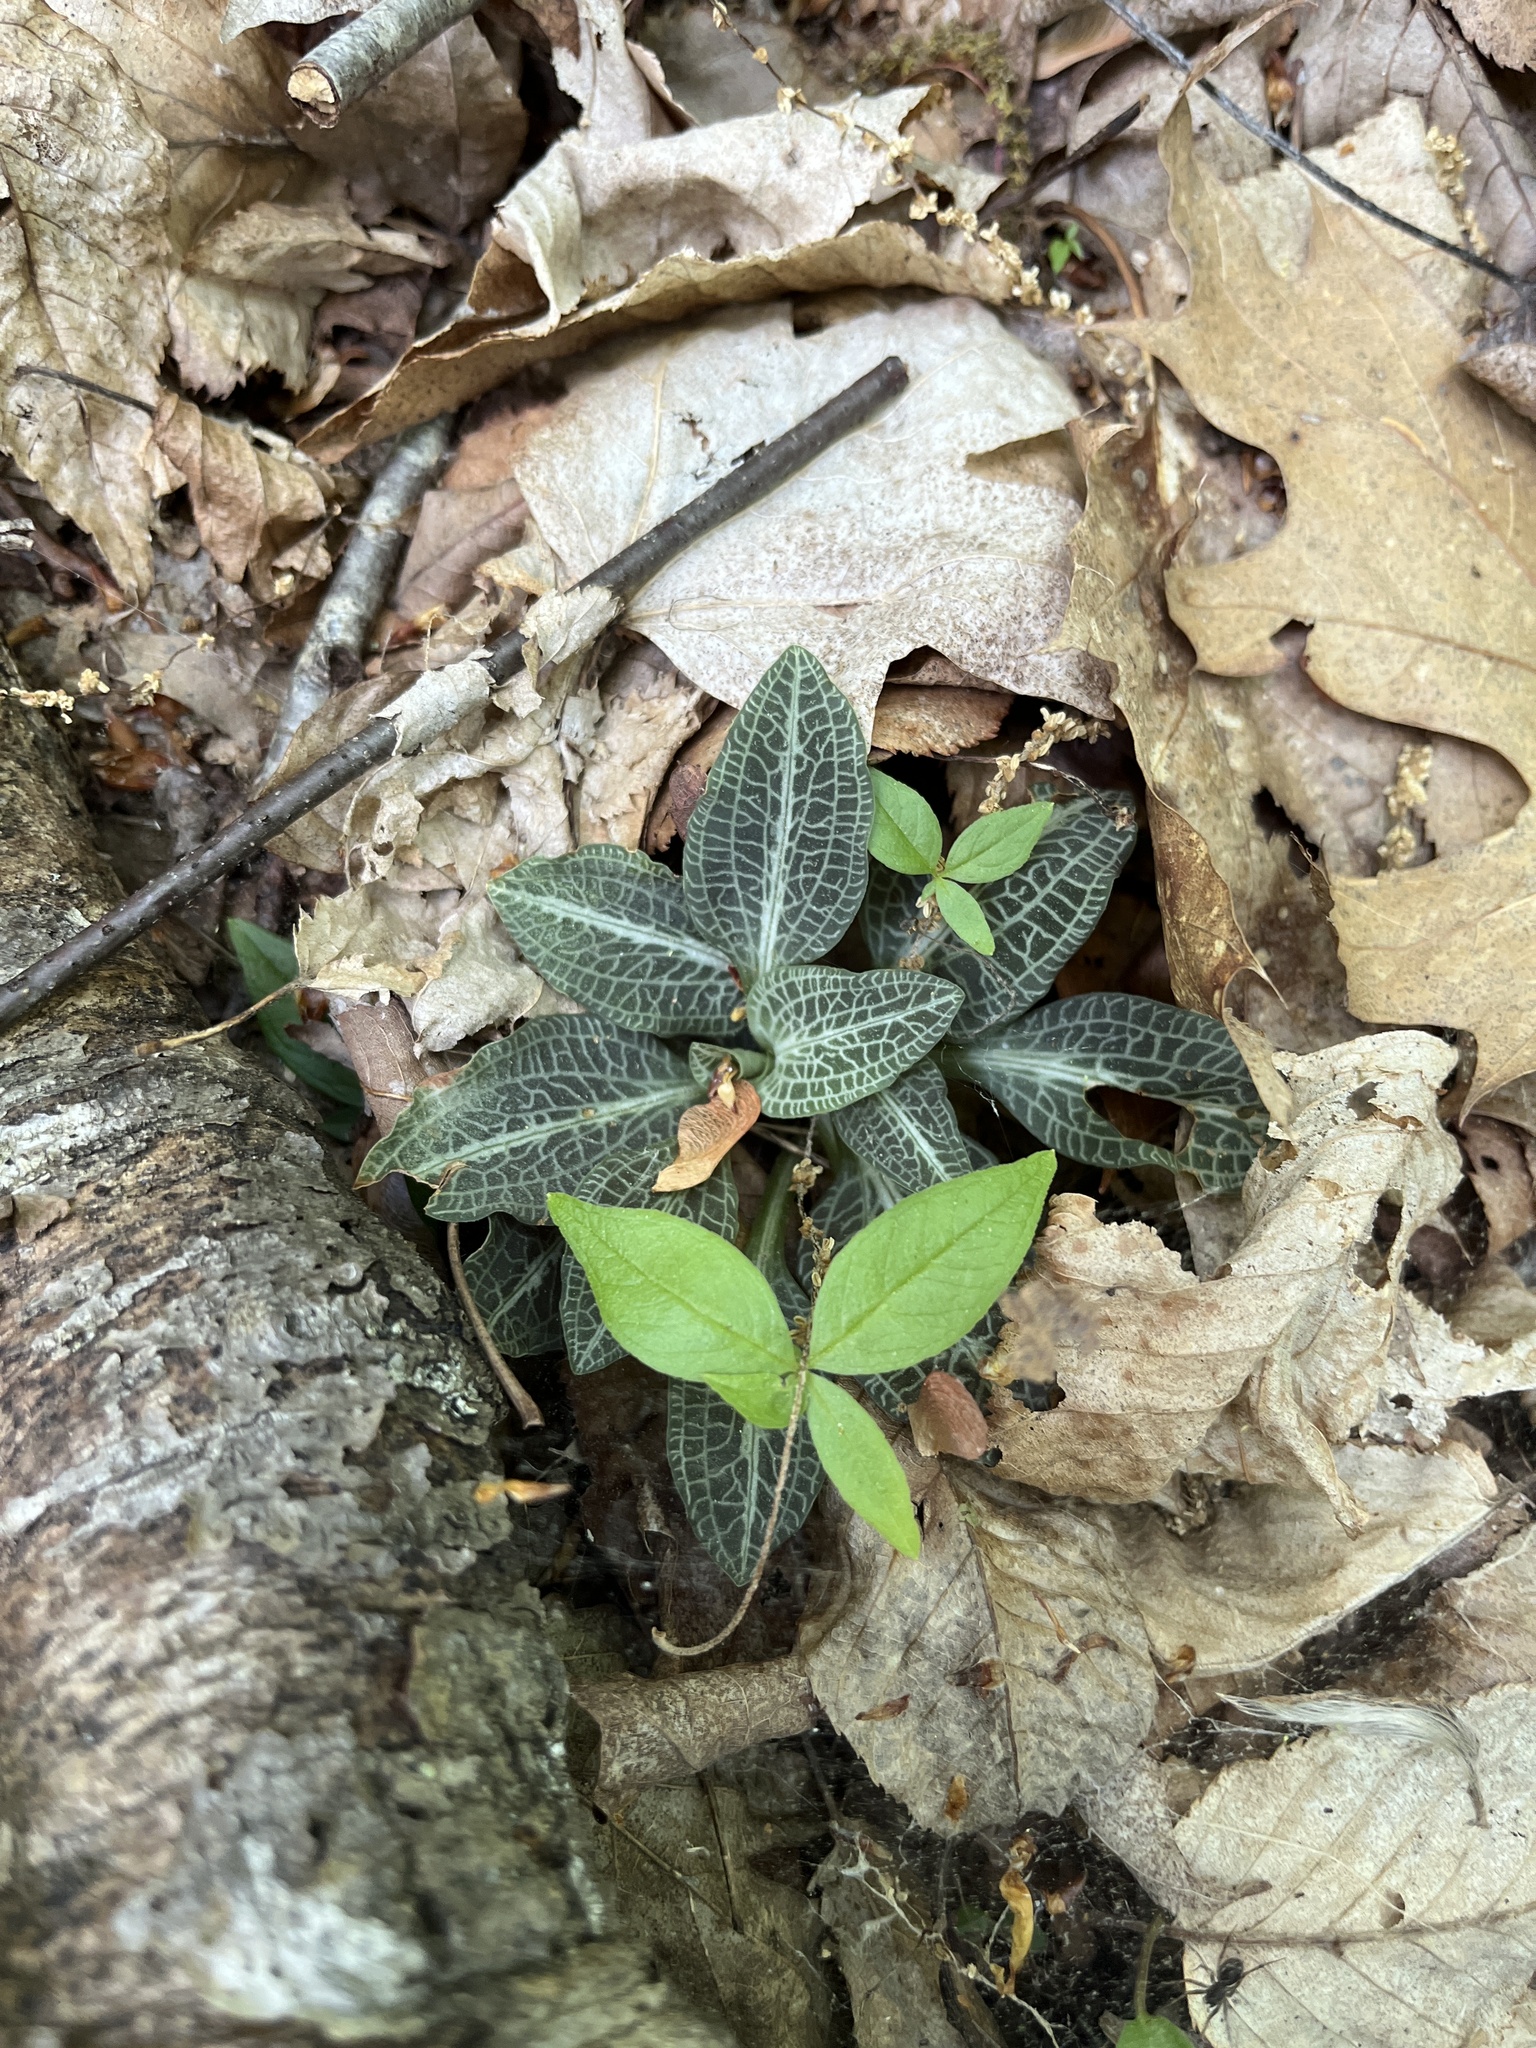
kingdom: Plantae
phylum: Tracheophyta
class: Liliopsida
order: Asparagales
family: Orchidaceae
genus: Goodyera
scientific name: Goodyera pubescens
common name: Downy rattlesnake-plantain
